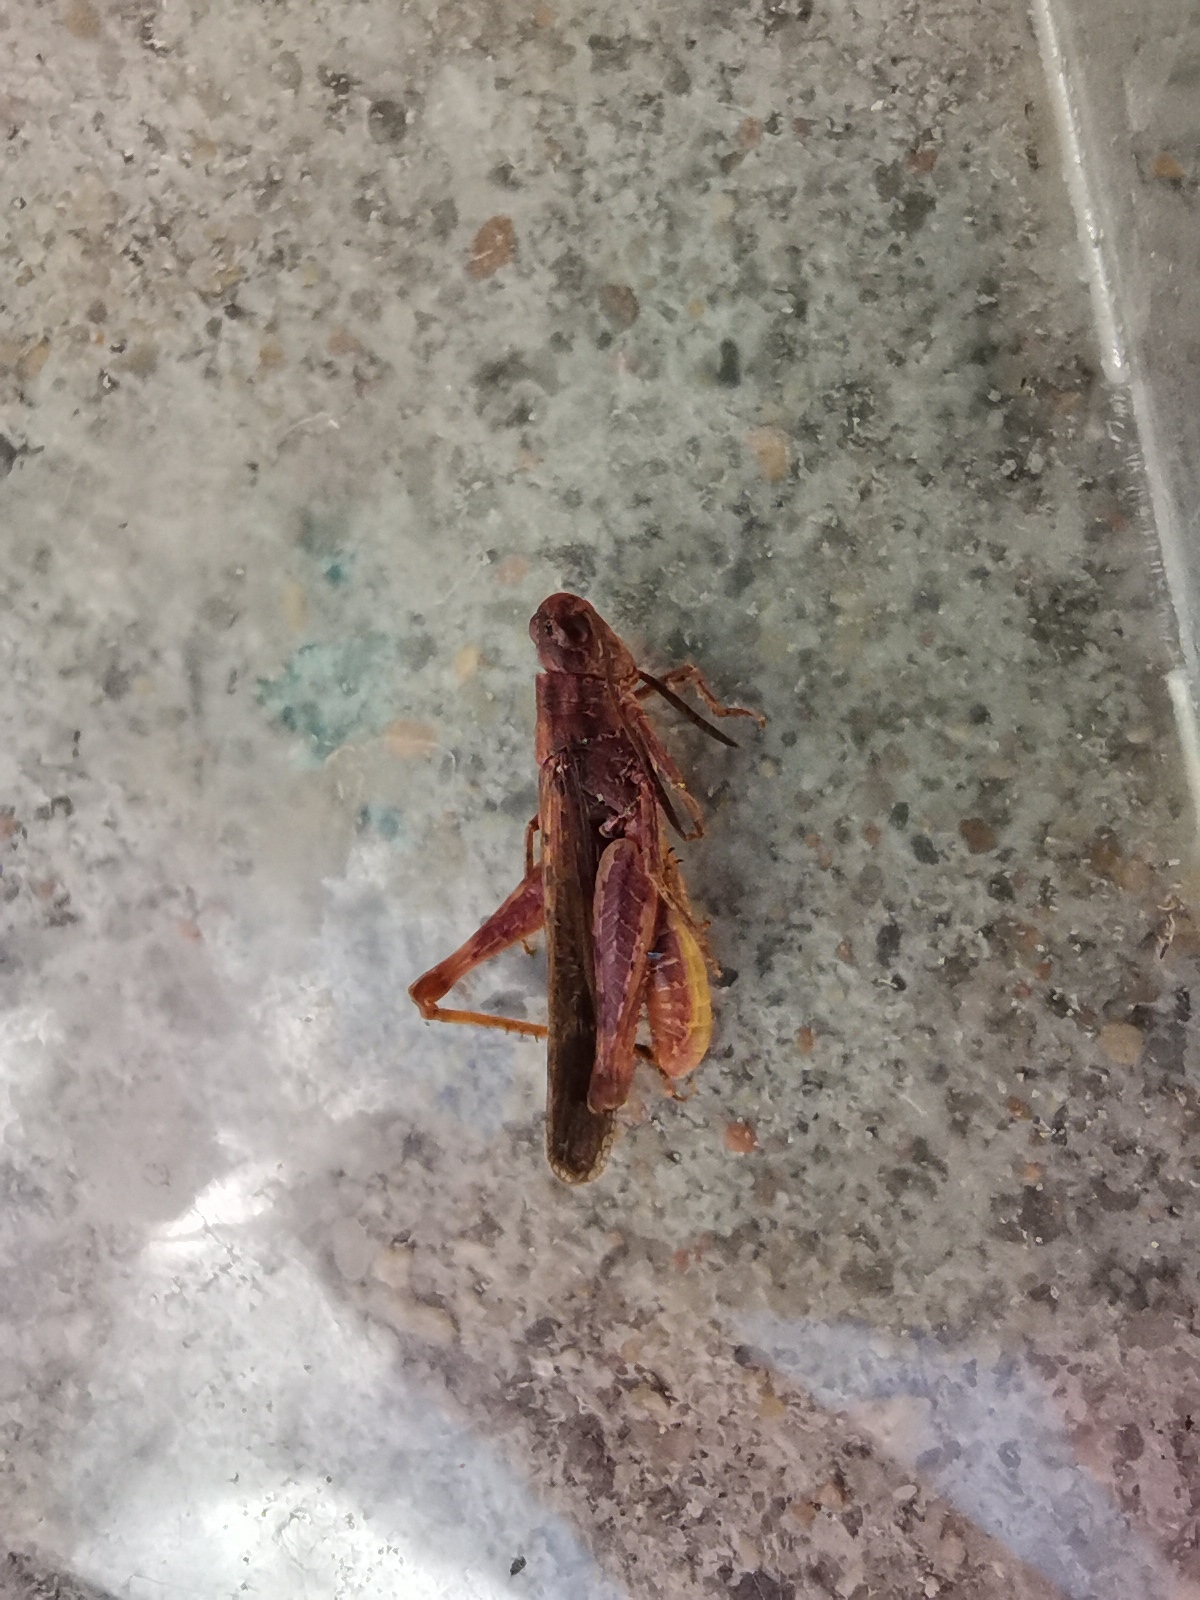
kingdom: Animalia
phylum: Arthropoda
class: Insecta
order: Orthoptera
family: Acrididae
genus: Chorthippus
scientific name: Chorthippus brunneus
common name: Field grasshopper
